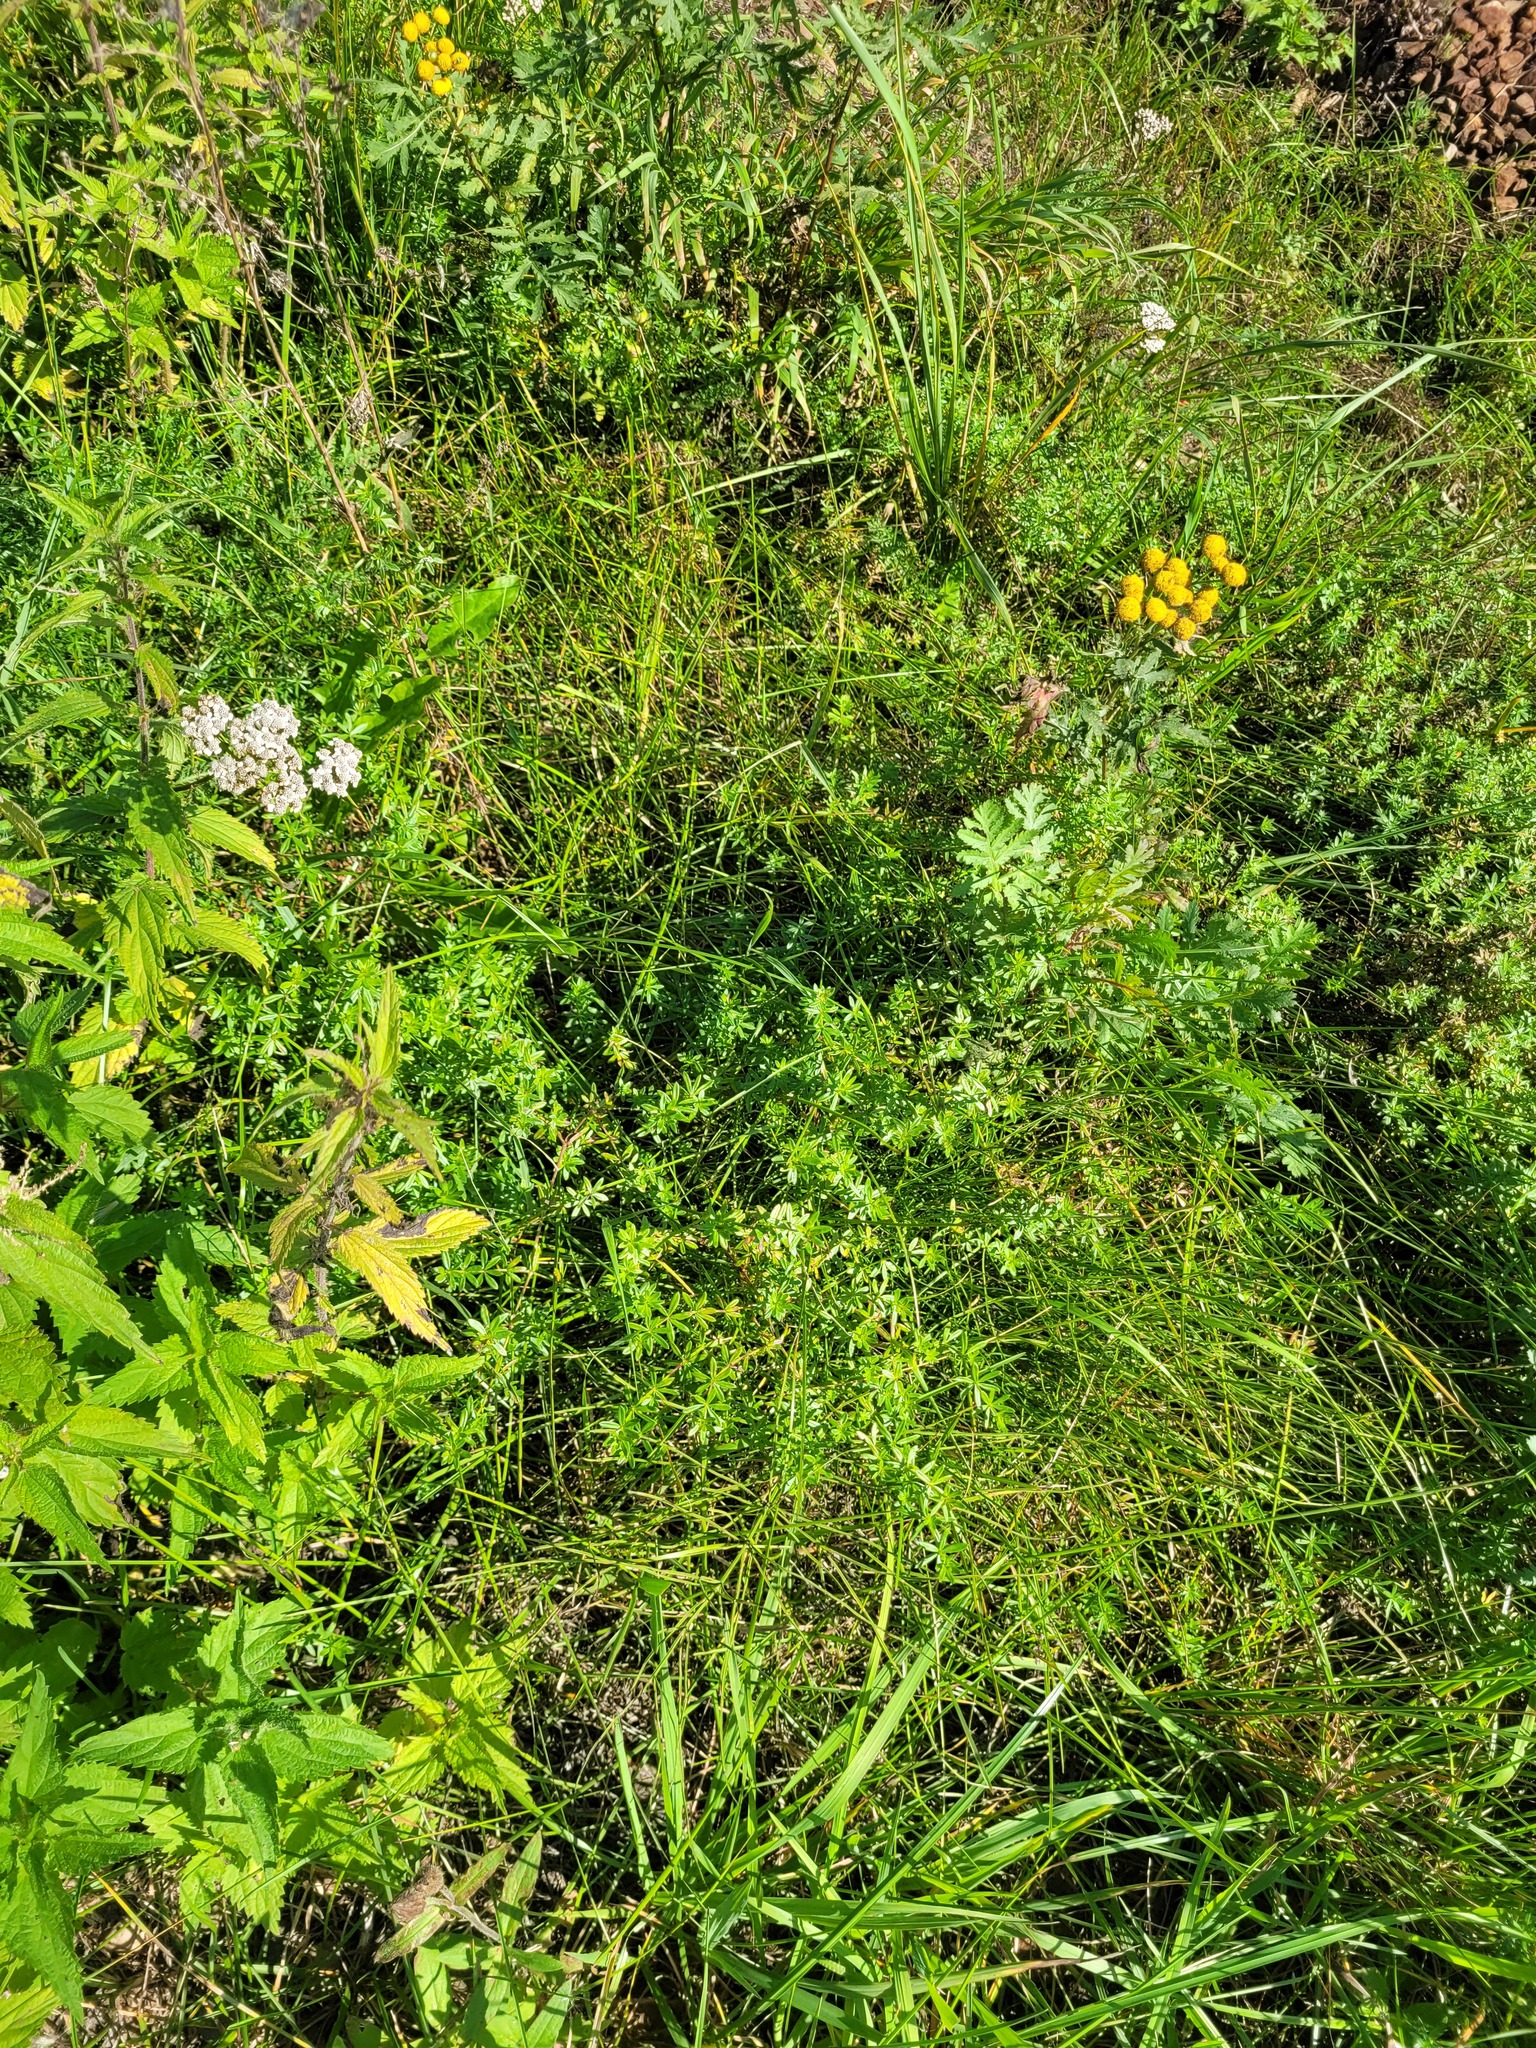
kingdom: Plantae
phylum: Tracheophyta
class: Magnoliopsida
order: Gentianales
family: Rubiaceae
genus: Galium
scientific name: Galium mollugo
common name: Hedge bedstraw
